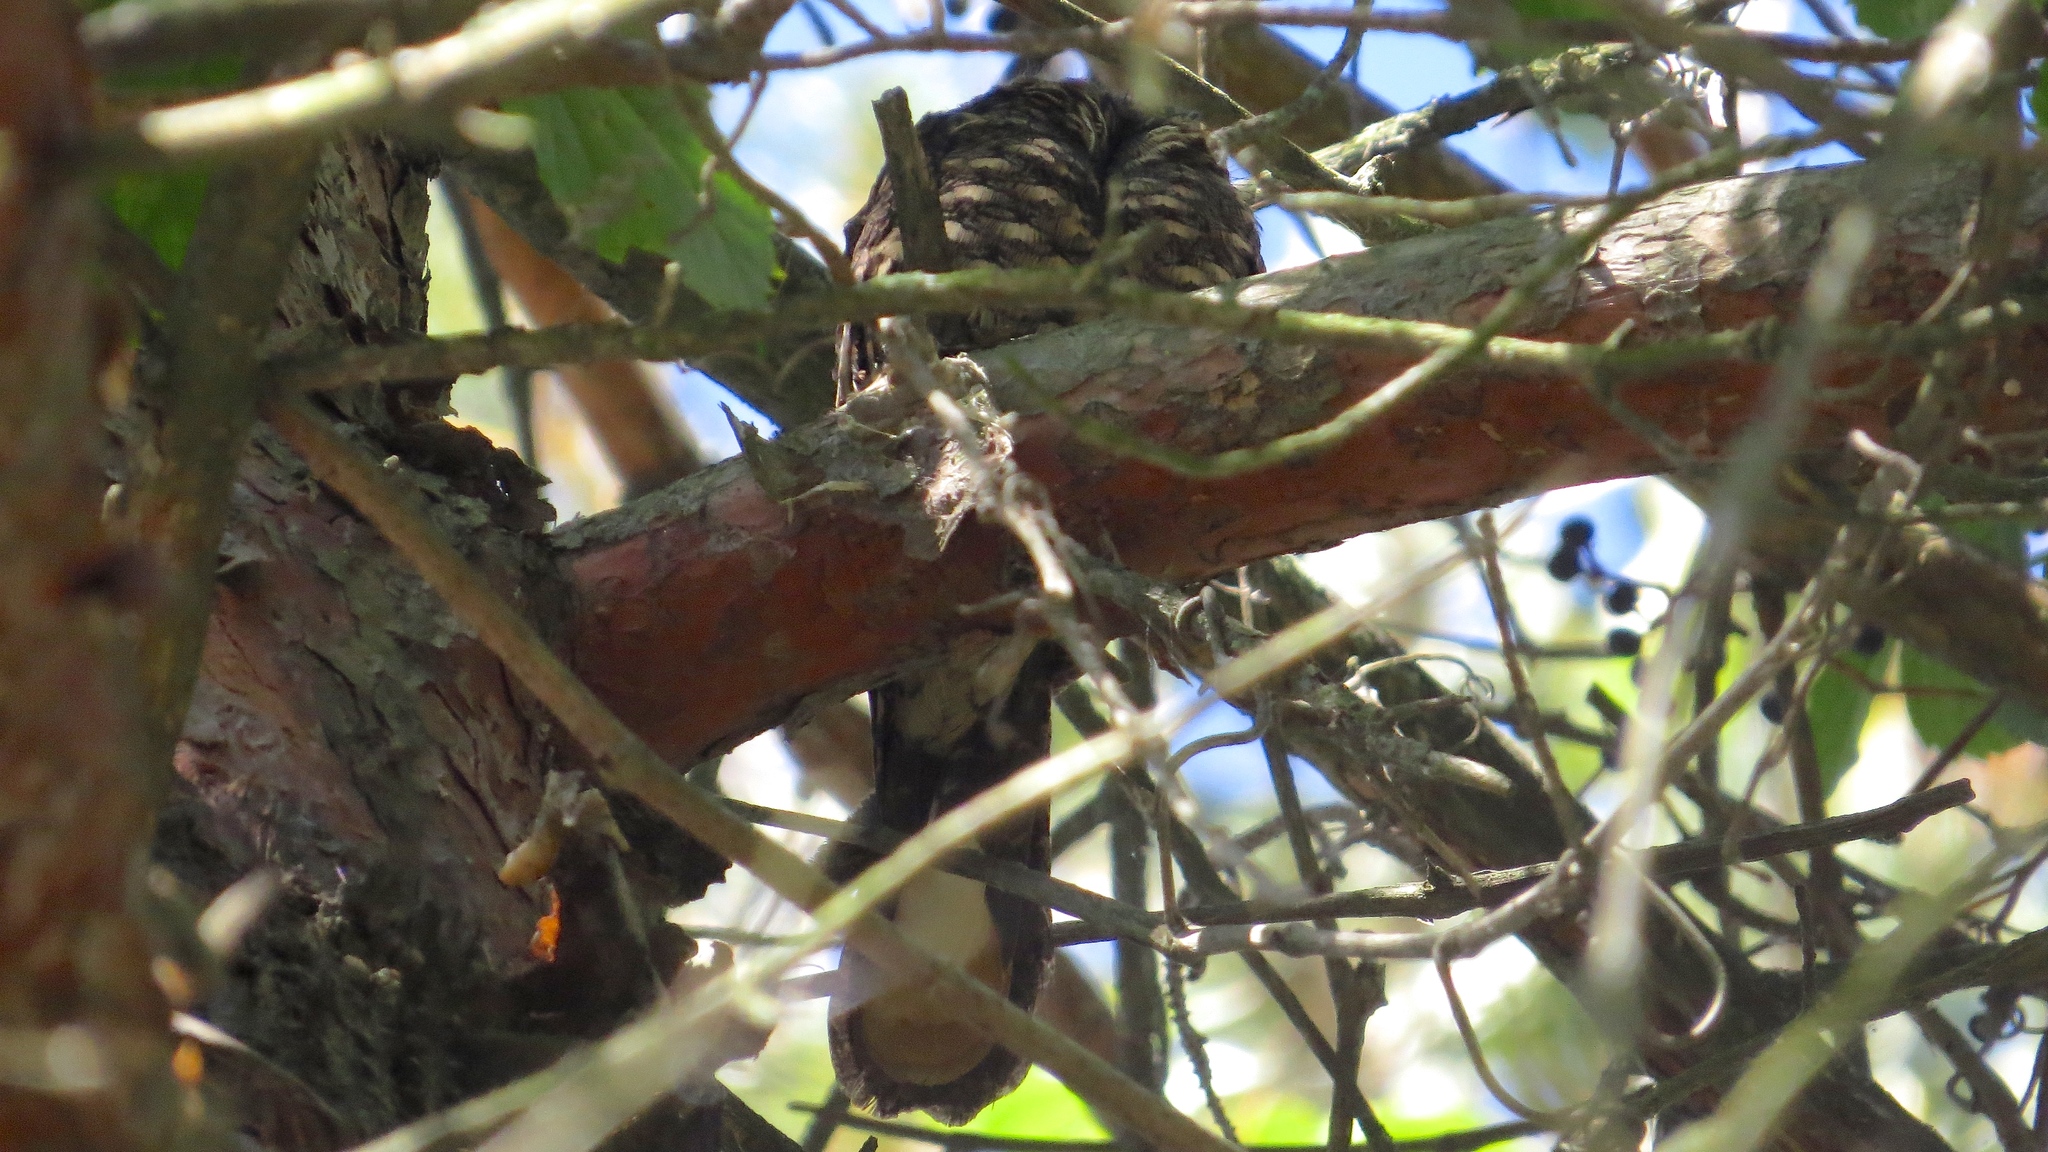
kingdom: Animalia
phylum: Chordata
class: Aves
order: Caprimulgiformes
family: Caprimulgidae
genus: Antrostomus
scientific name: Antrostomus vociferus
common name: Eastern whip-poor-will
